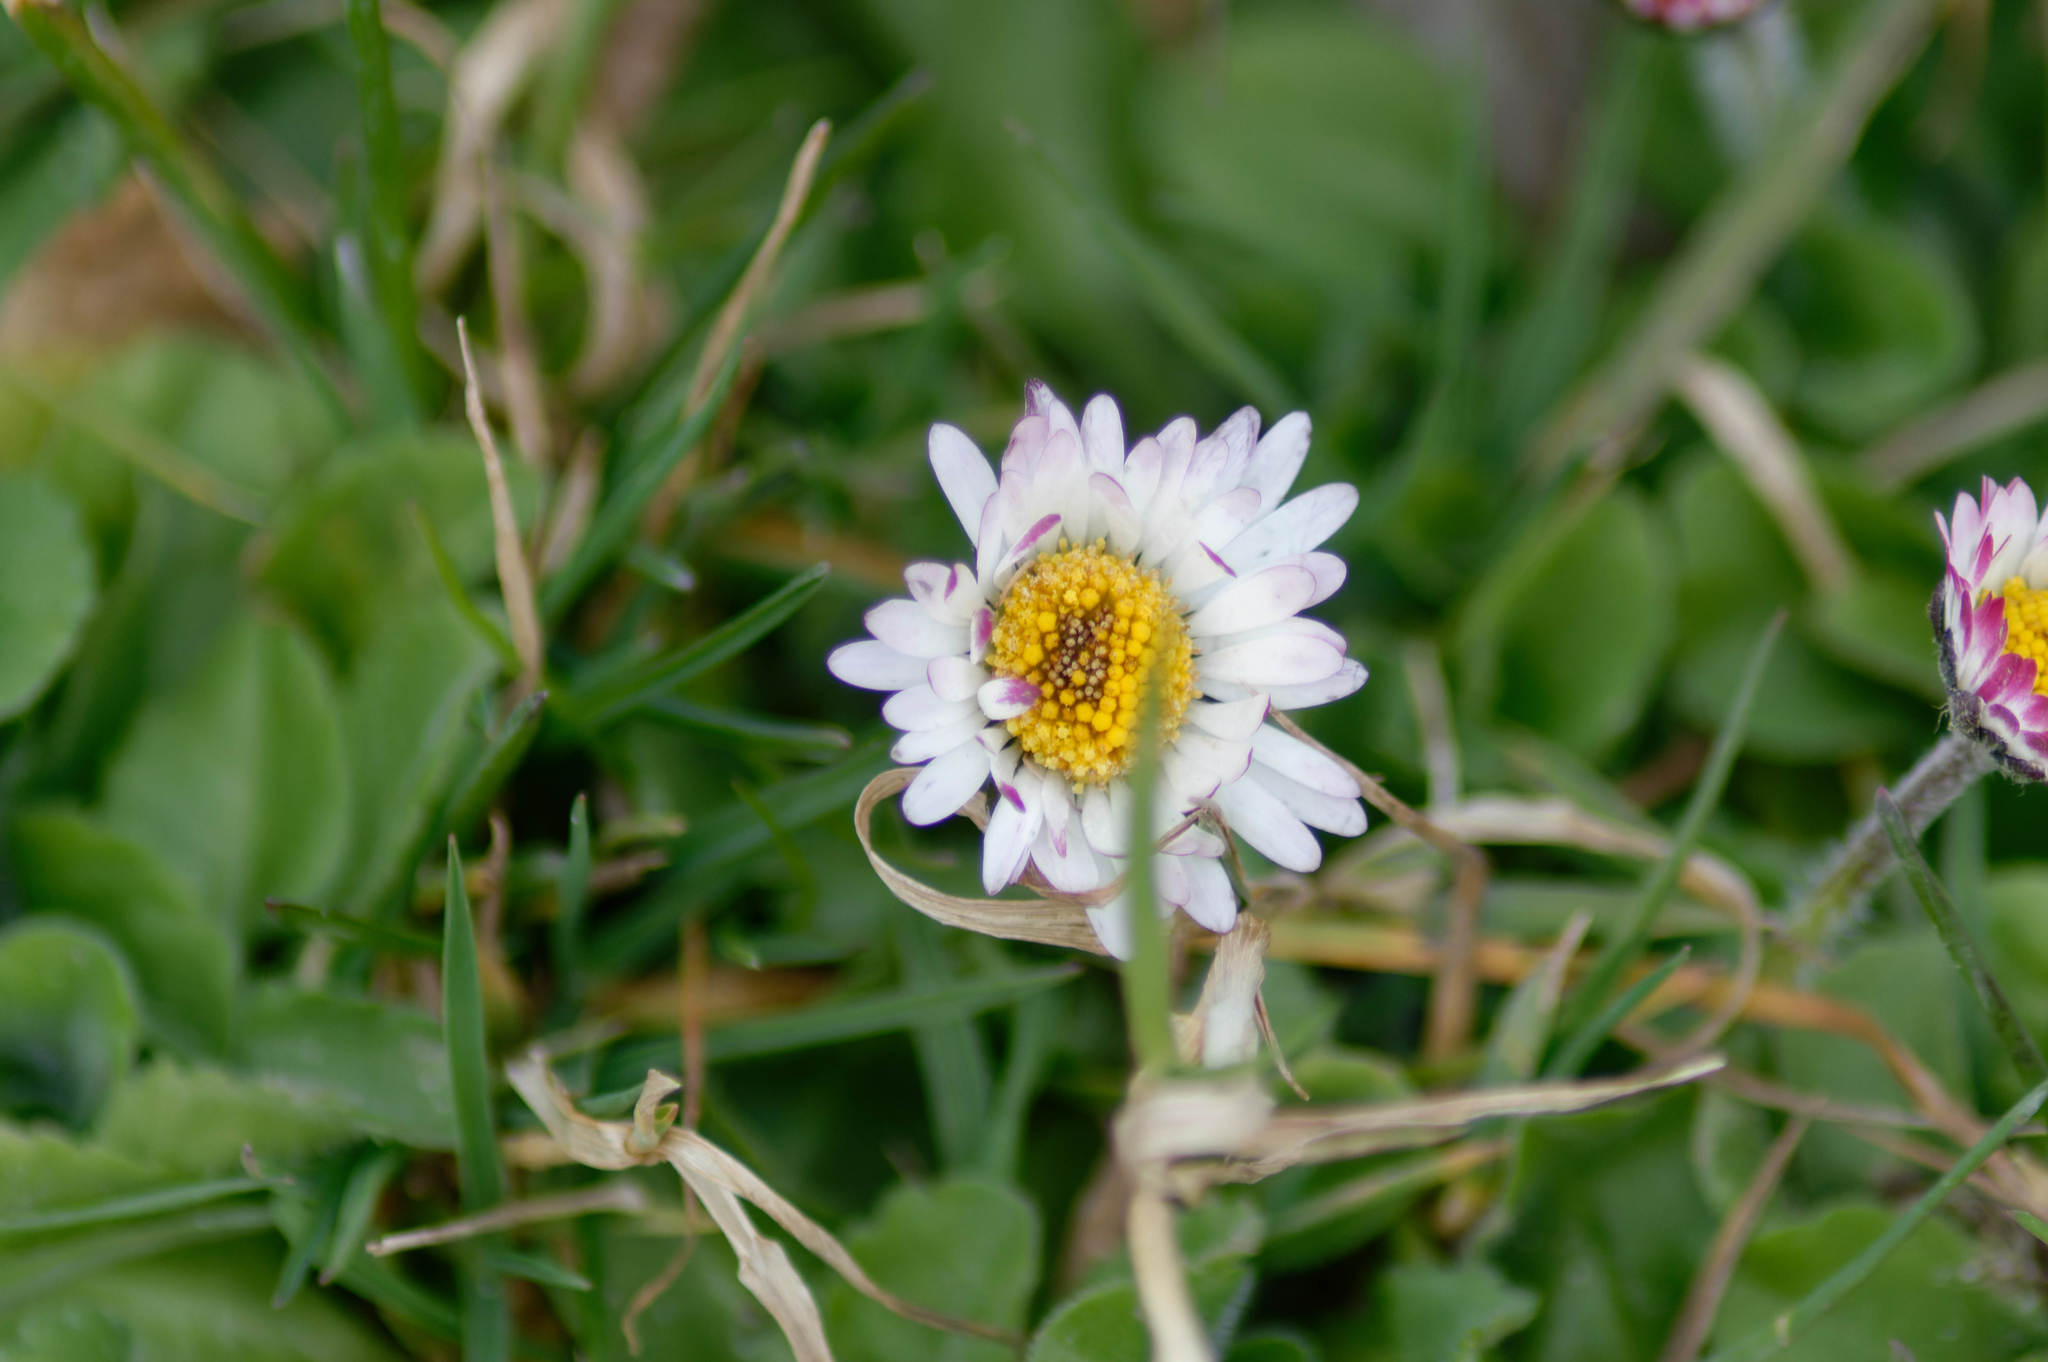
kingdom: Plantae
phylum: Tracheophyta
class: Magnoliopsida
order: Asterales
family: Asteraceae
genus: Bellis
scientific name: Bellis perennis
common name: Lawndaisy
